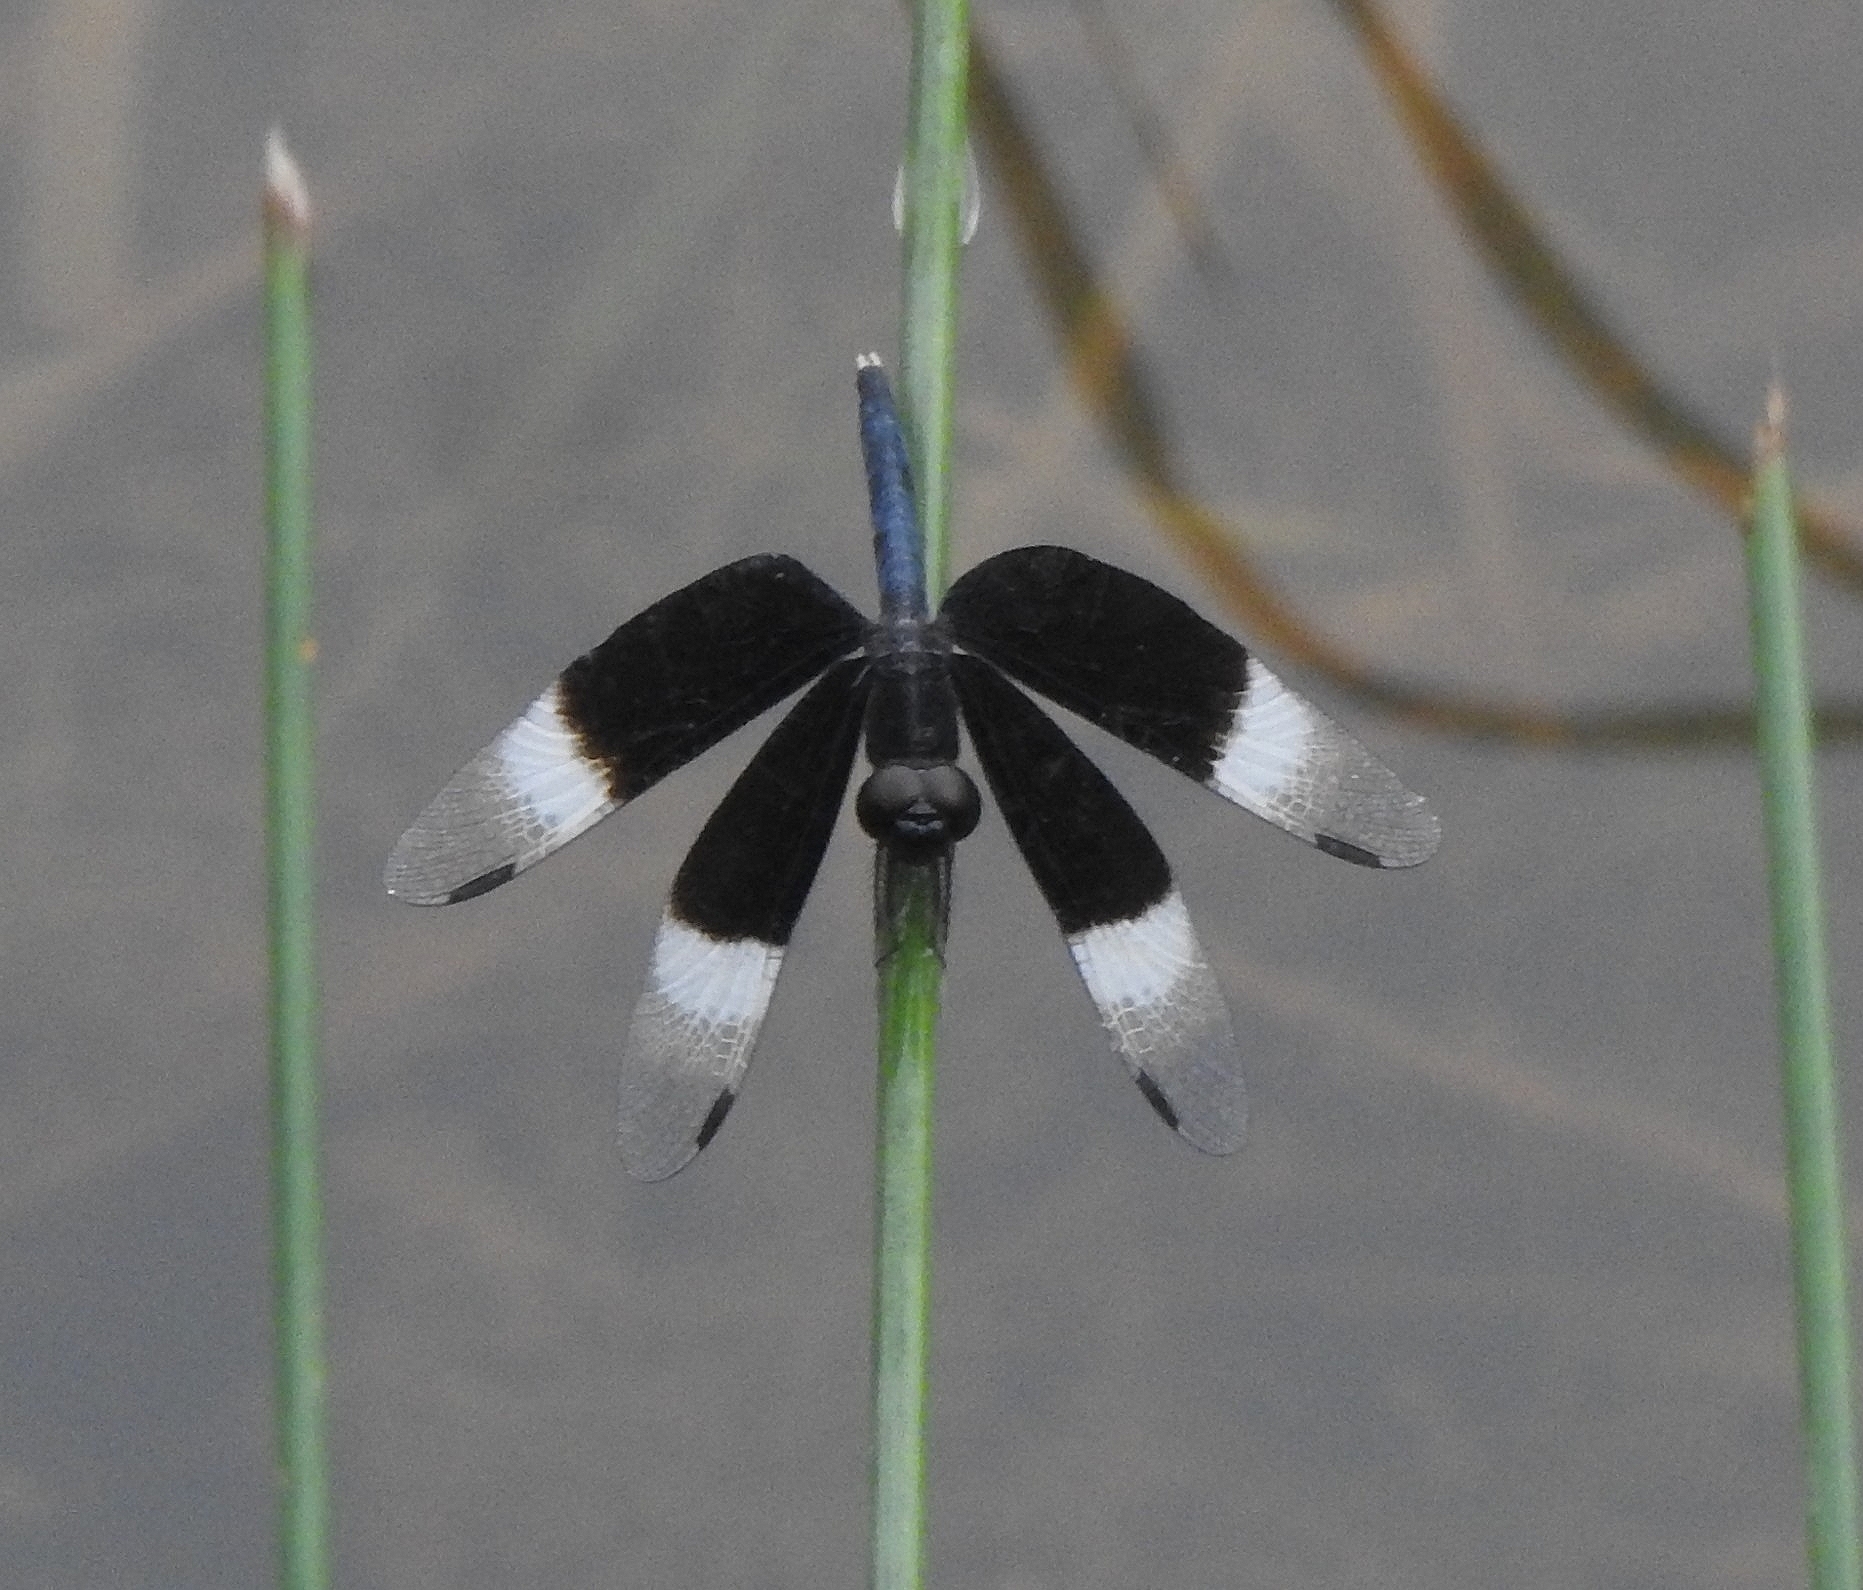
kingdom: Animalia
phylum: Arthropoda
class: Insecta
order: Odonata
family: Libellulidae
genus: Neurothemis
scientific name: Neurothemis tullia
